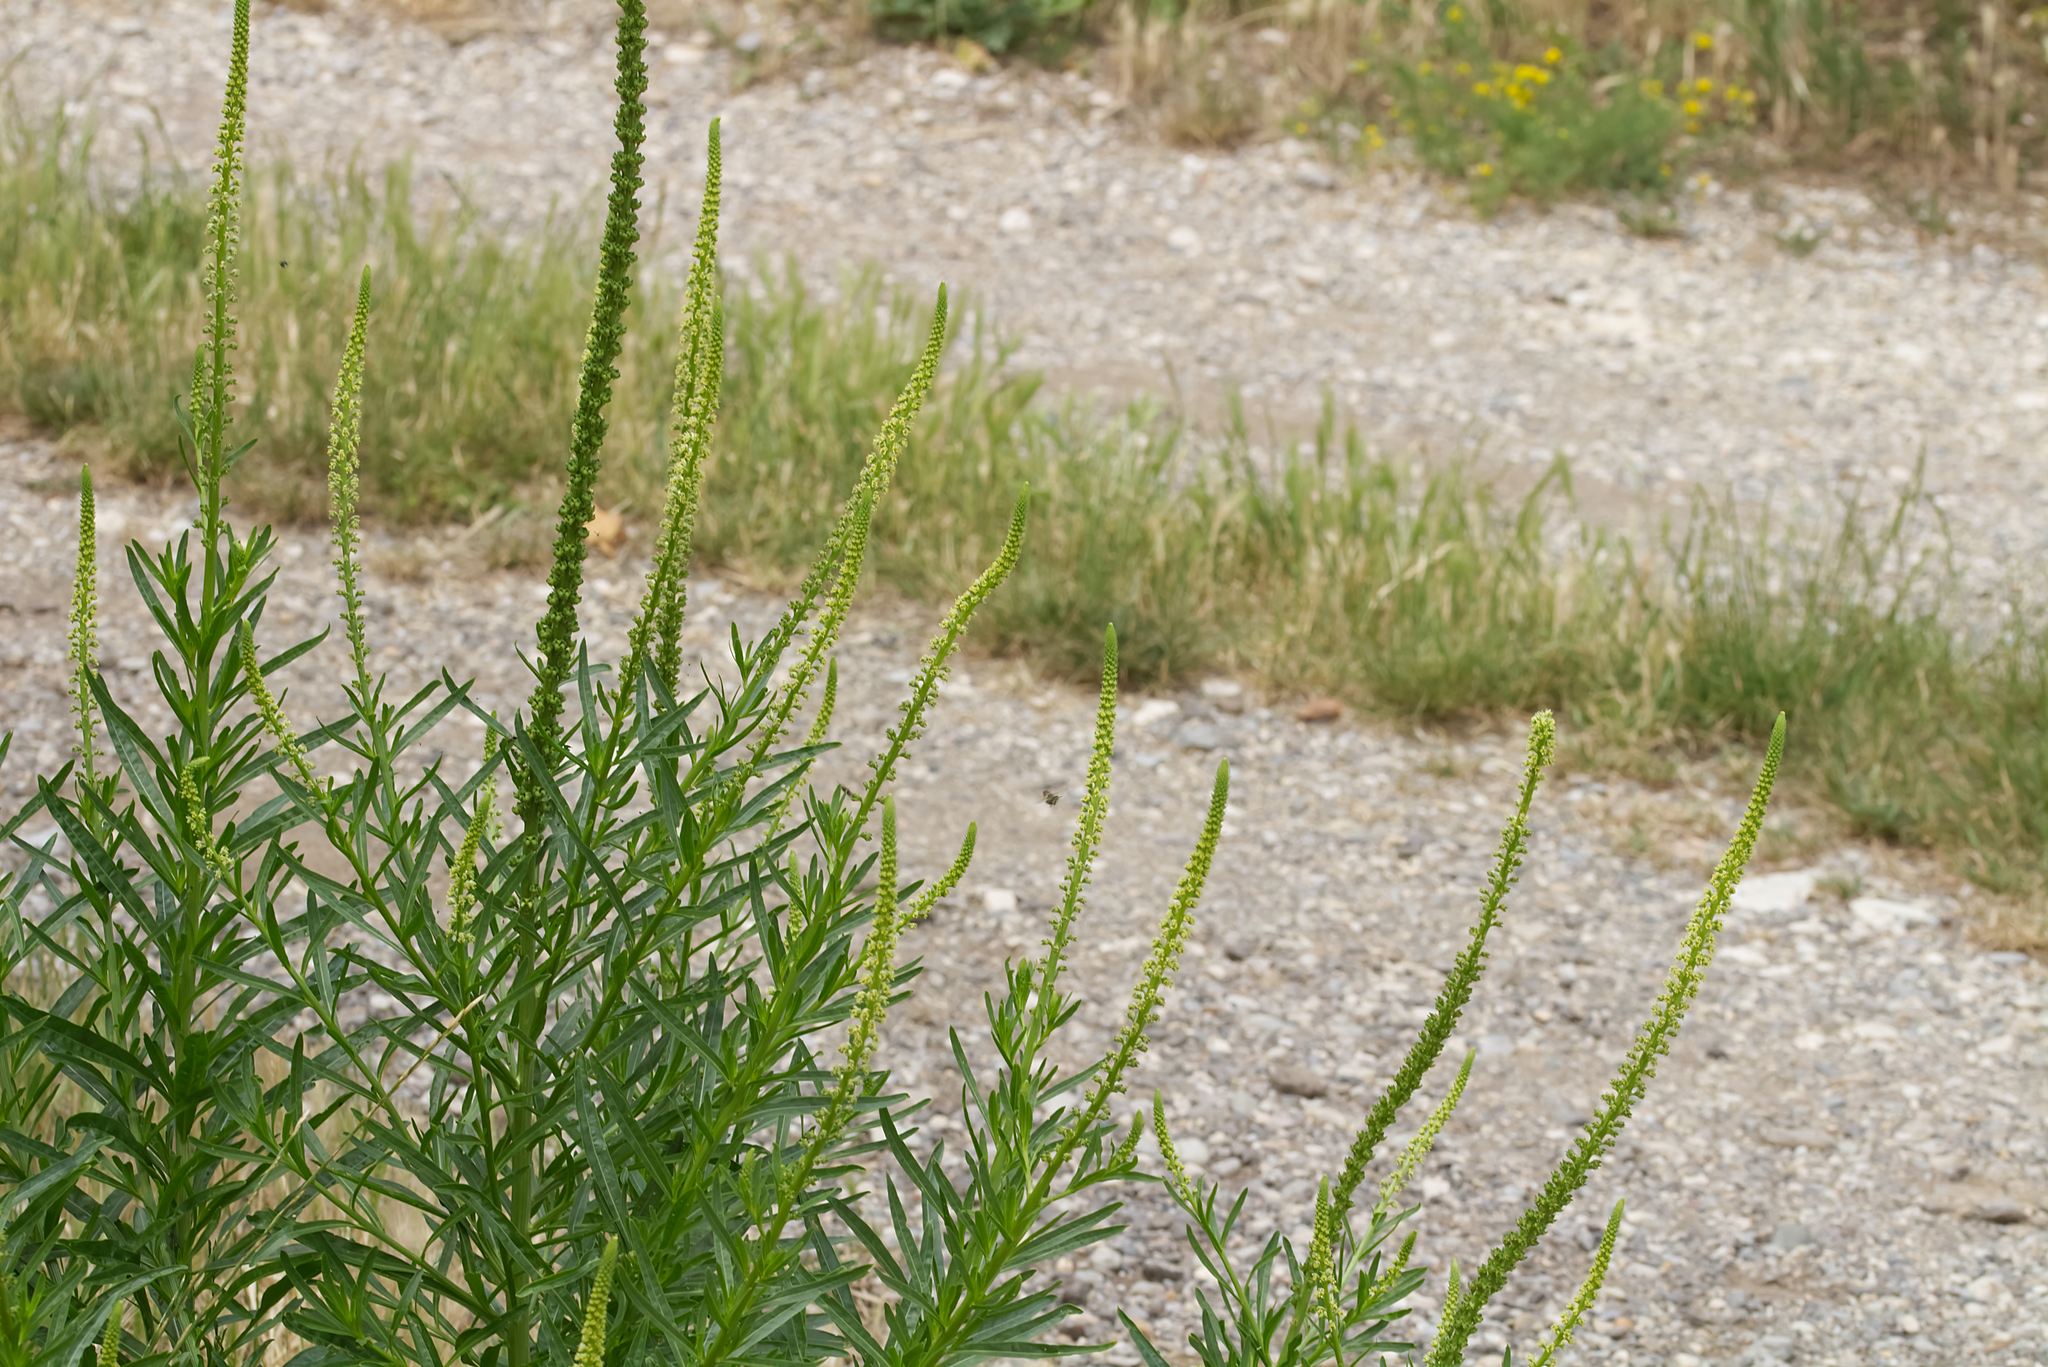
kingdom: Plantae
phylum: Tracheophyta
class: Magnoliopsida
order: Brassicales
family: Resedaceae
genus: Reseda
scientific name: Reseda luteola
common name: Weld
